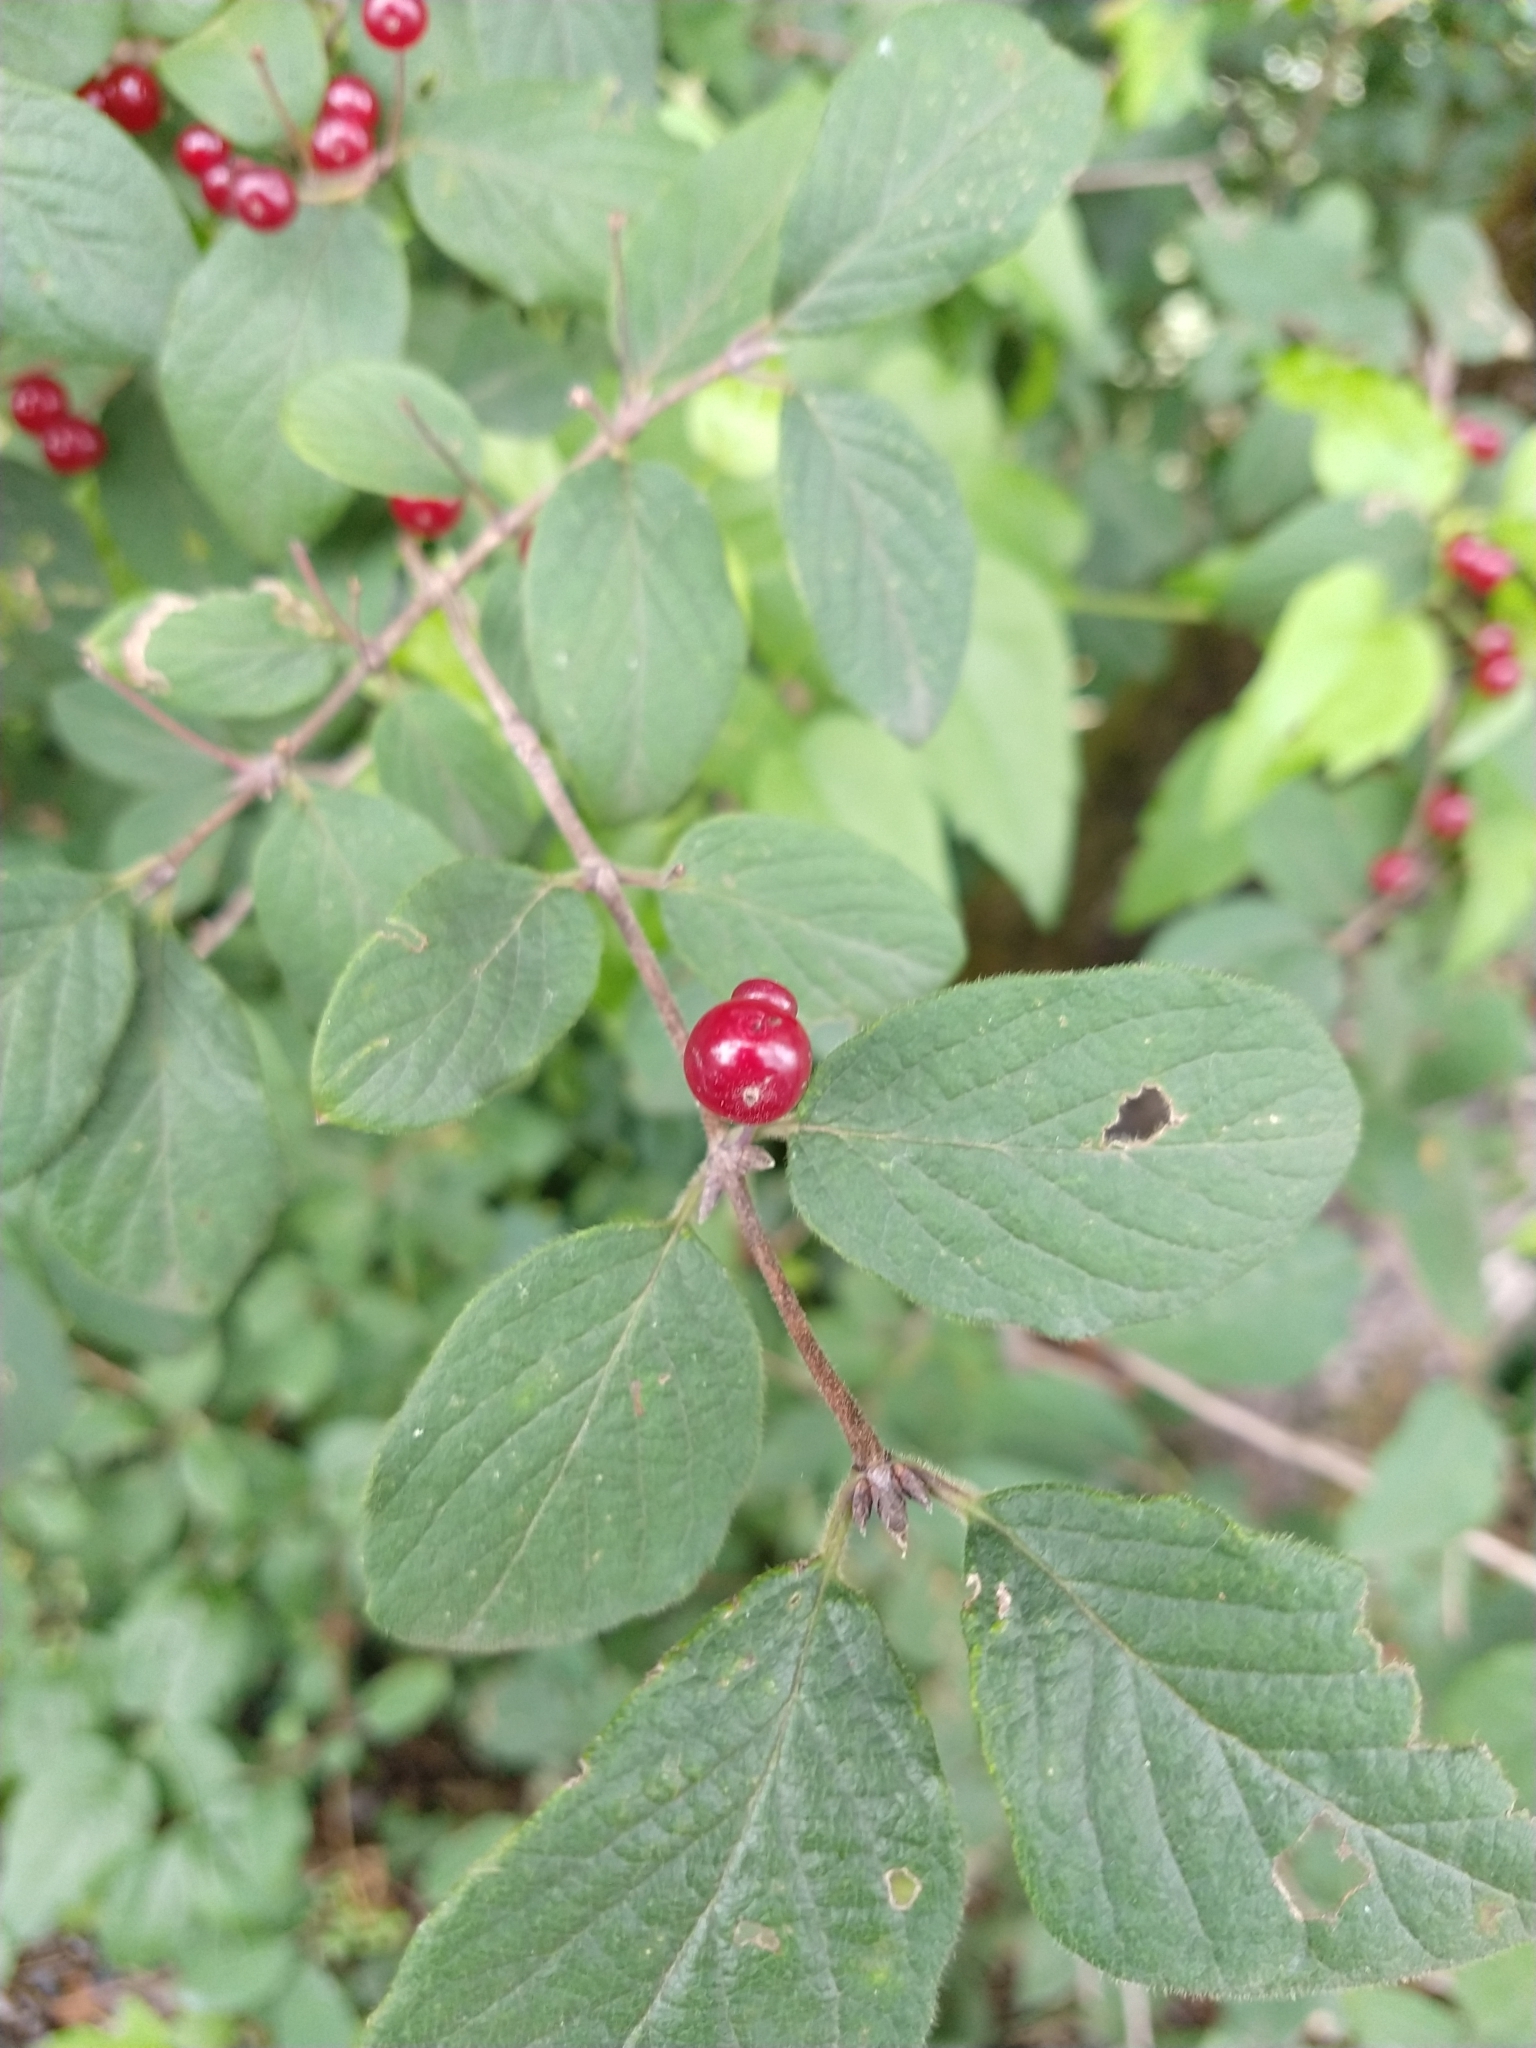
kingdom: Plantae
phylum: Tracheophyta
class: Magnoliopsida
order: Dipsacales
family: Caprifoliaceae
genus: Lonicera
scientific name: Lonicera xylosteum
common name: Fly honeysuckle
